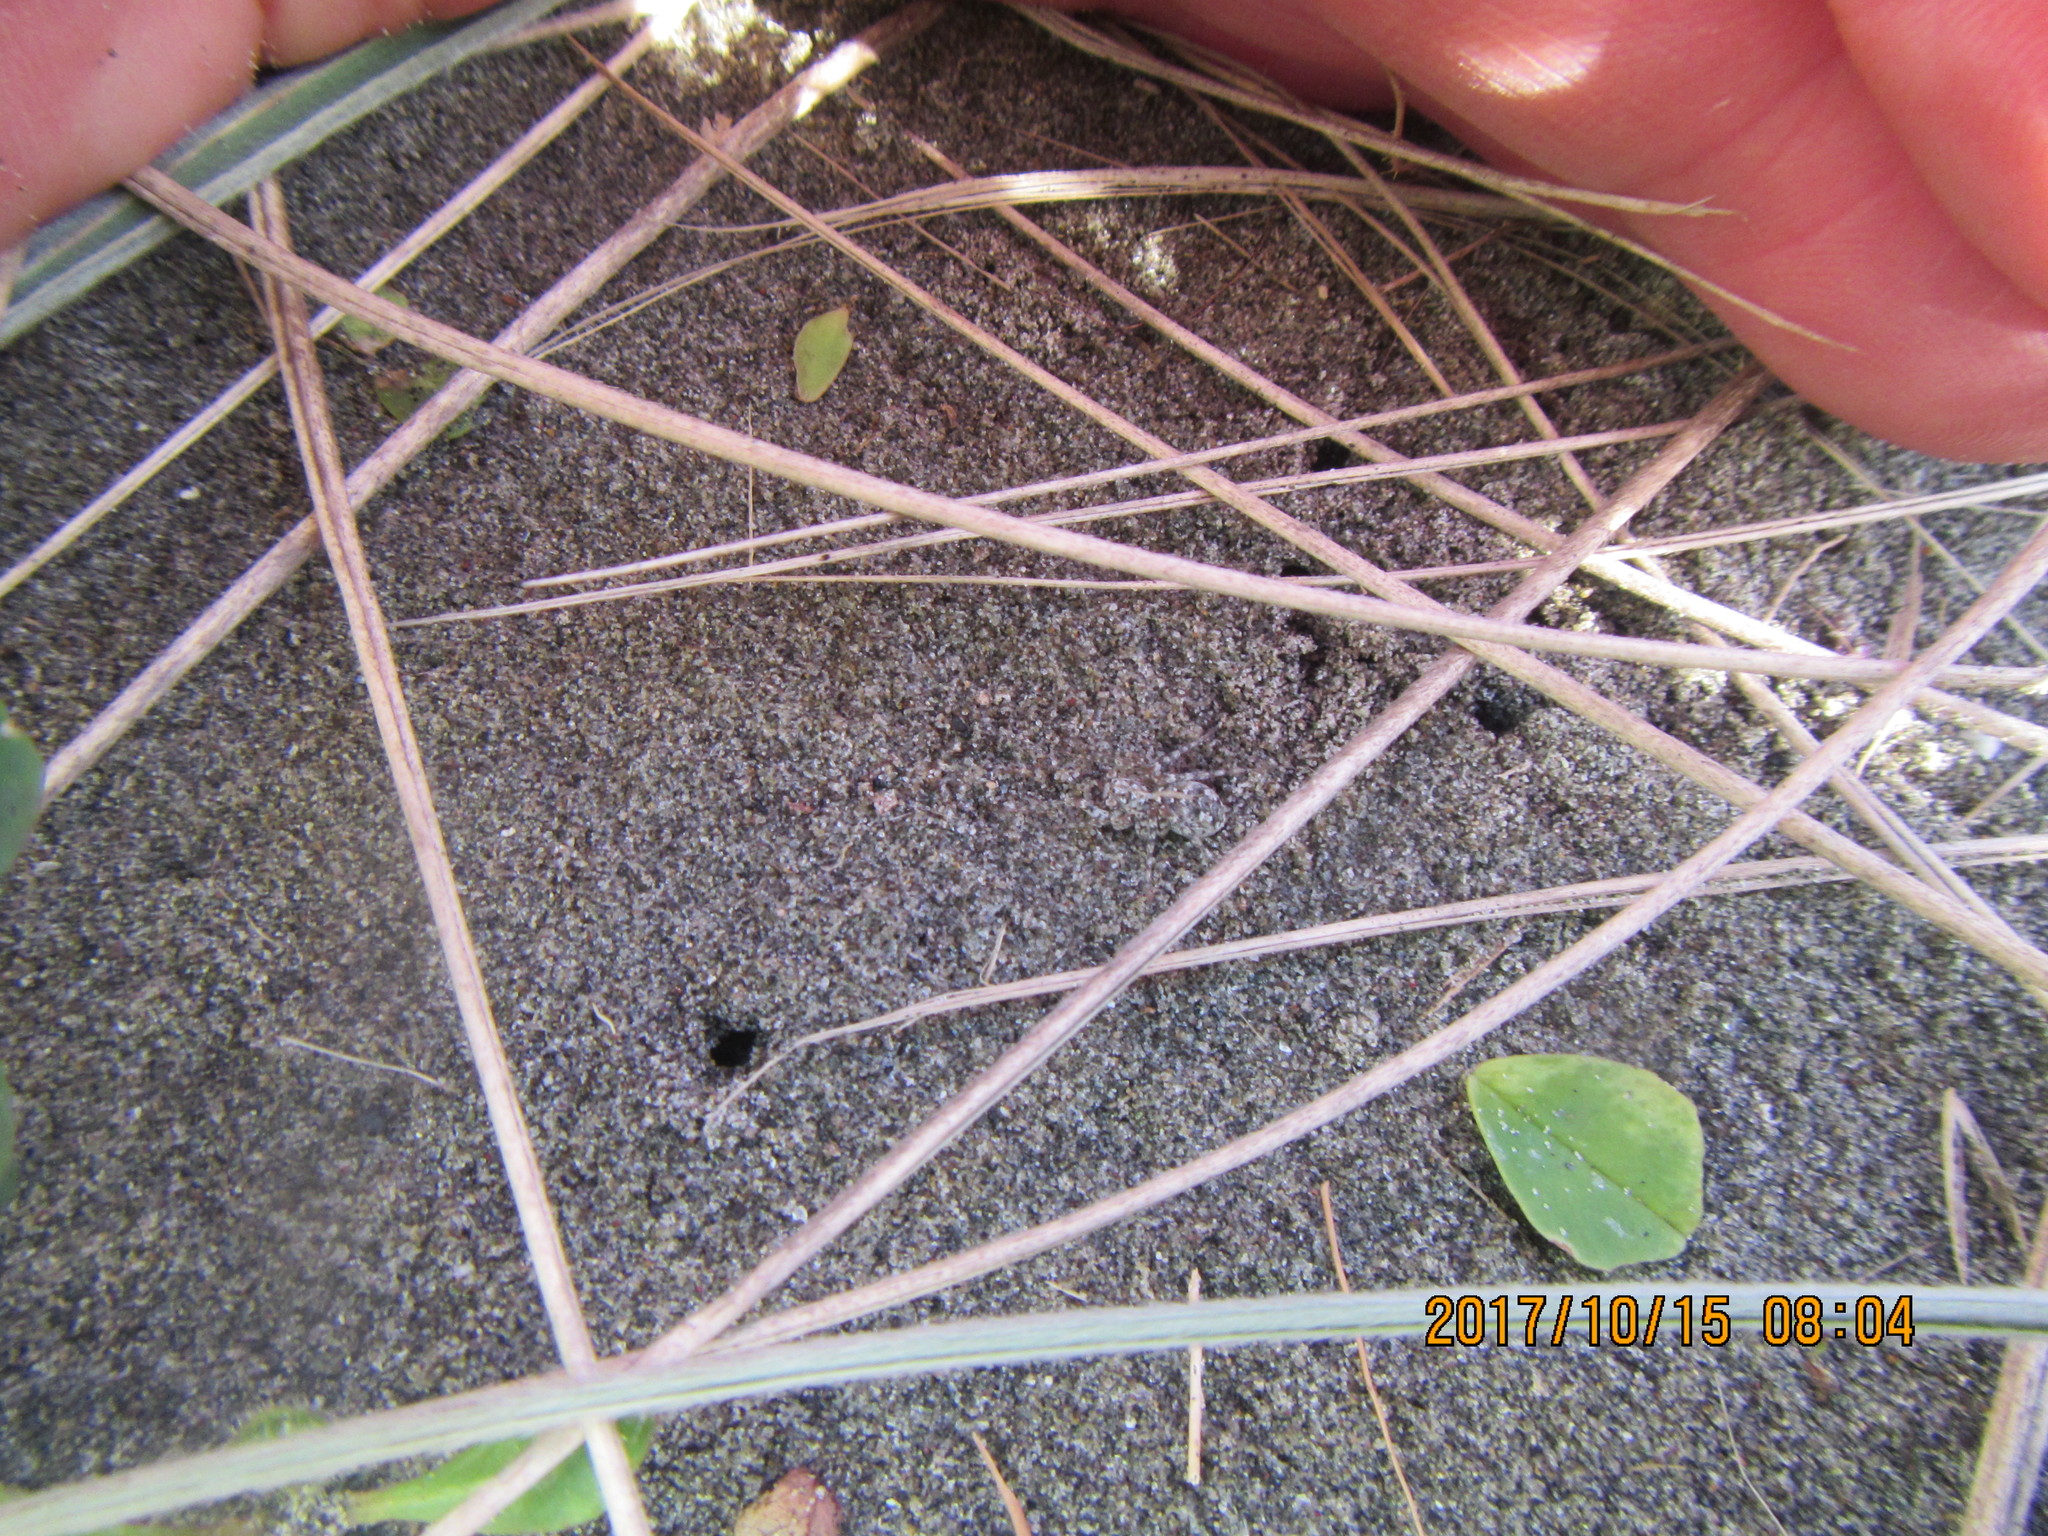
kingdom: Animalia
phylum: Arthropoda
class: Arachnida
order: Araneae
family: Lycosidae
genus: Anoteropsis
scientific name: Anoteropsis litoralis
